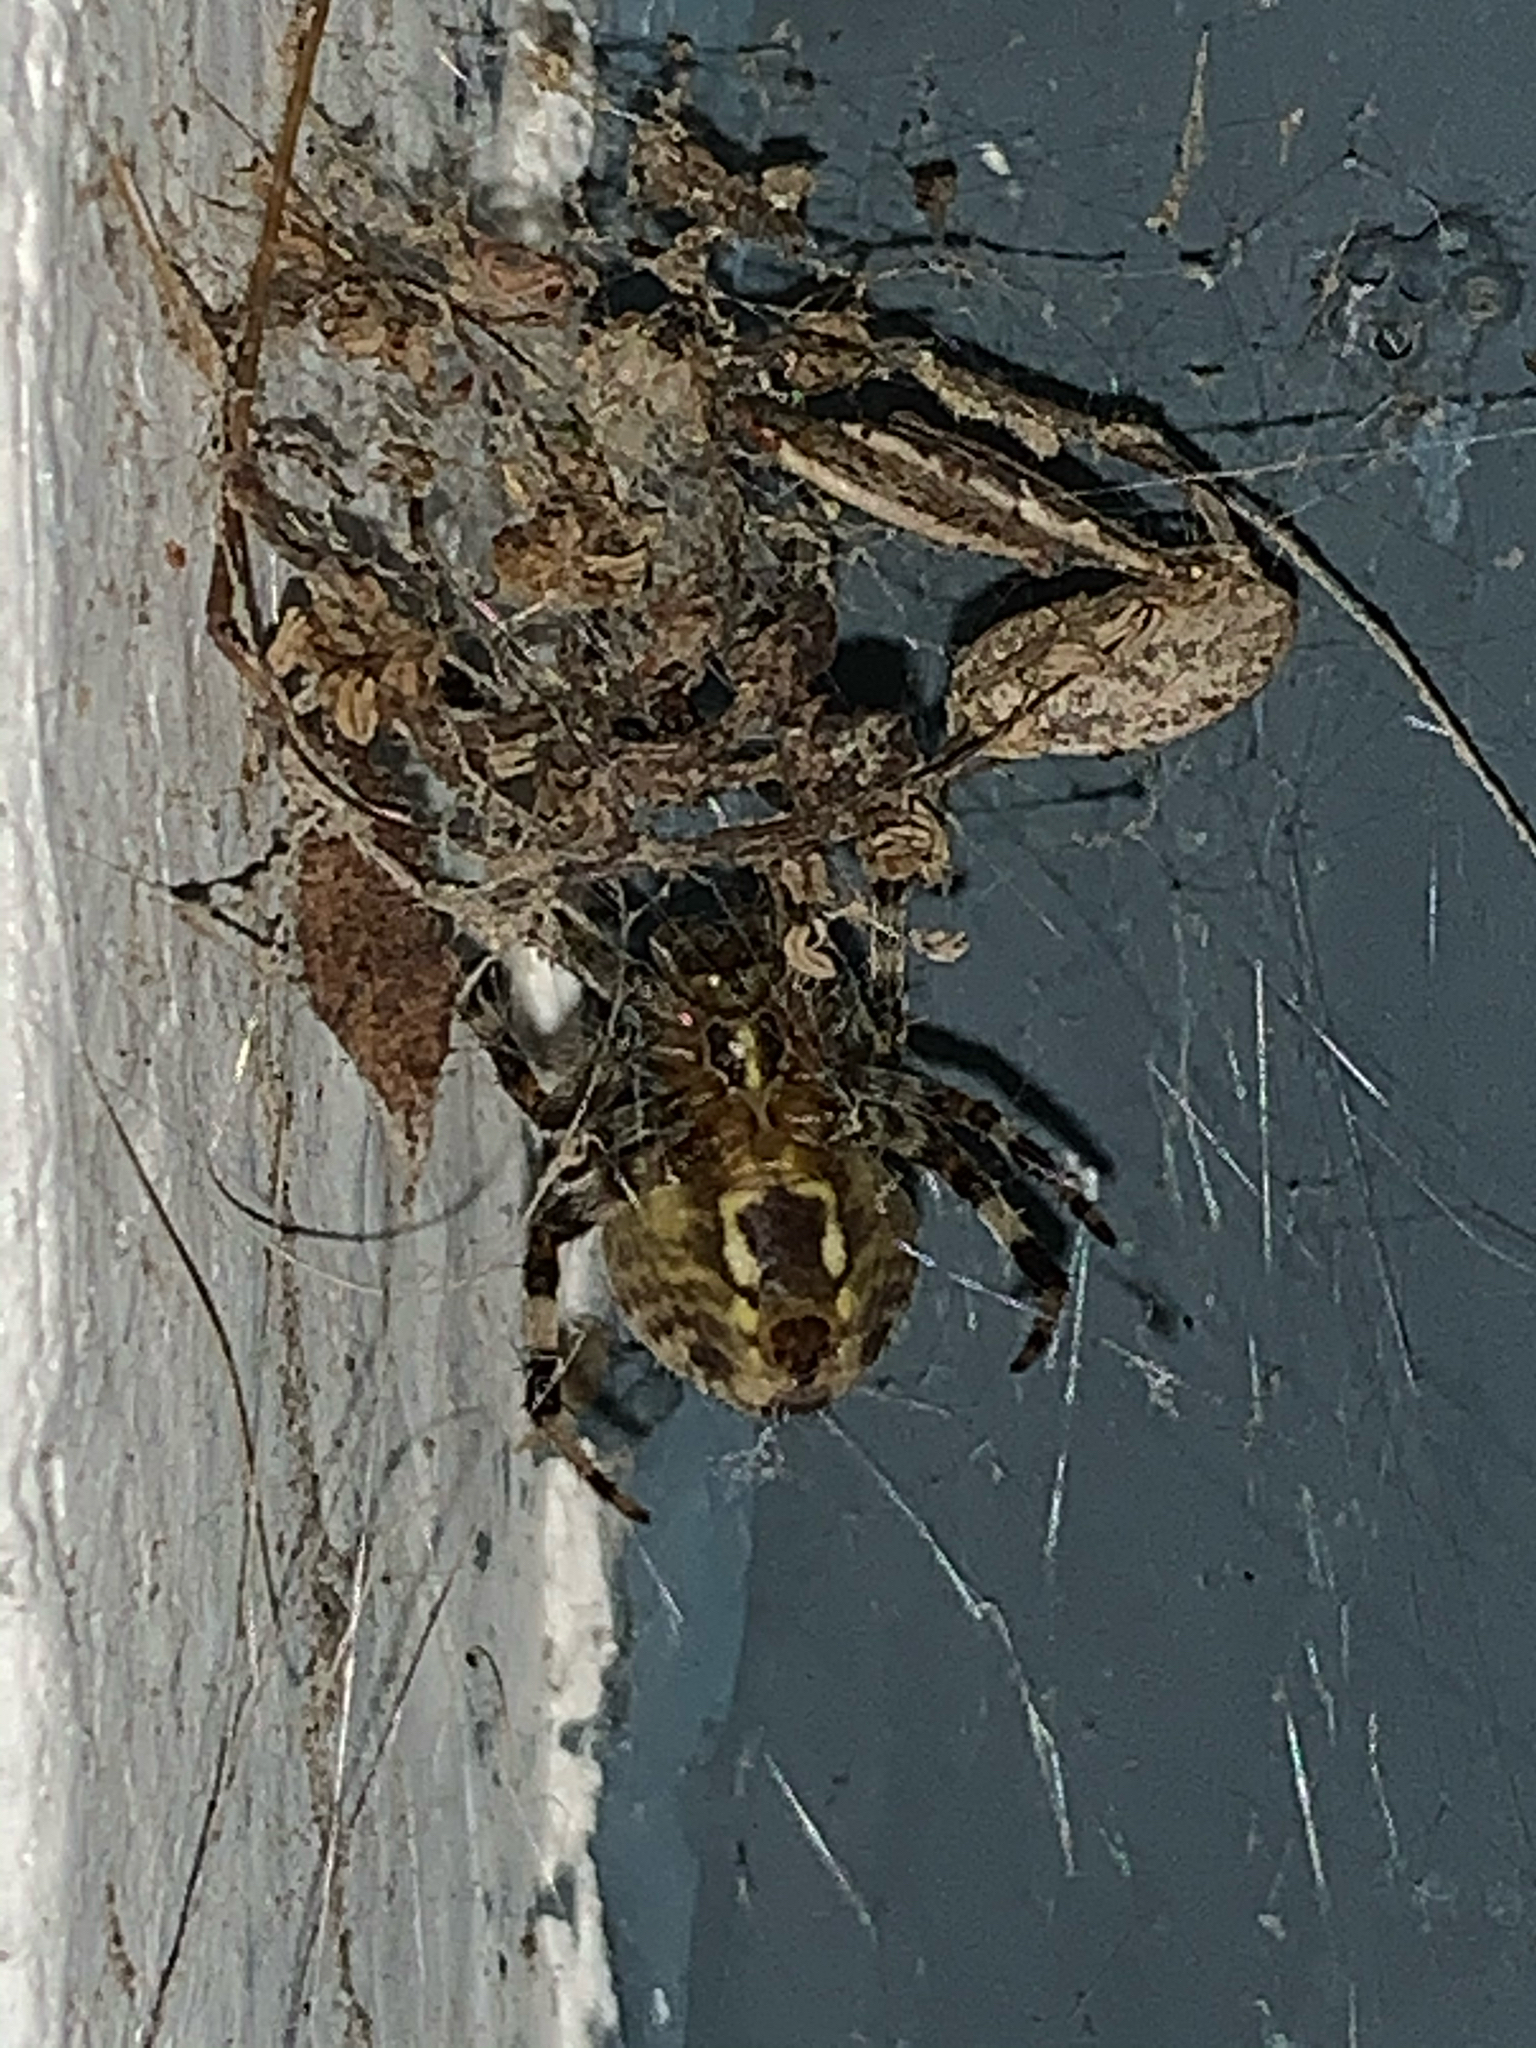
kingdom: Animalia
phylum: Arthropoda
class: Arachnida
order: Araneae
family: Araneidae
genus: Neoscona
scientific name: Neoscona
